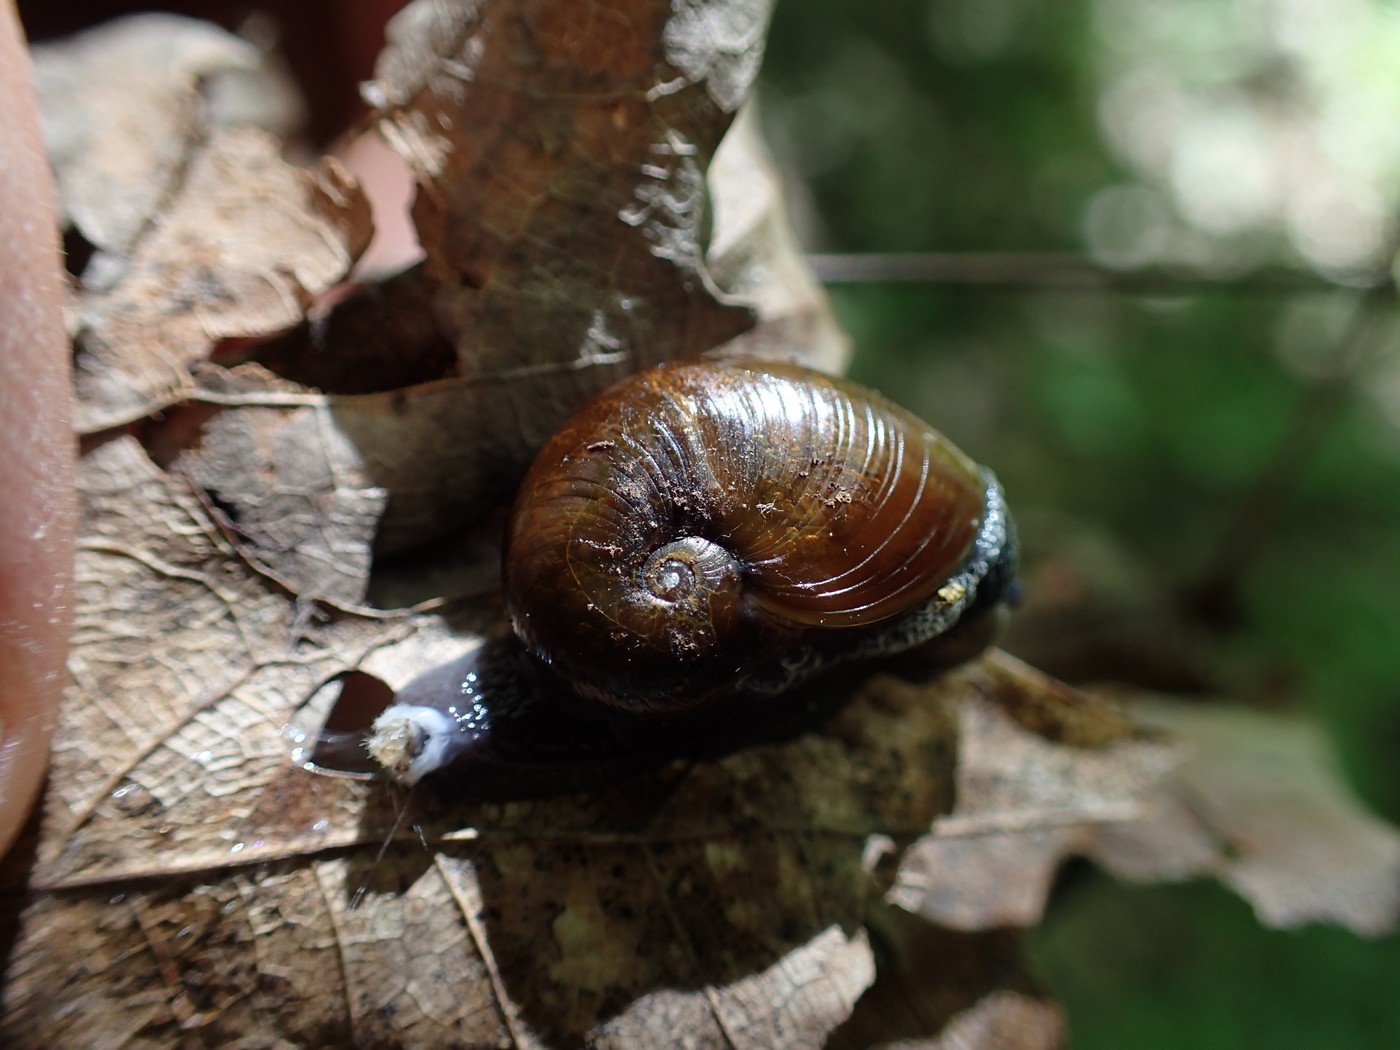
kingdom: Animalia
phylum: Mollusca
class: Gastropoda
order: Stylommatophora
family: Gastrodontidae
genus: Vitrinizonites
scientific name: Vitrinizonites latissimus
